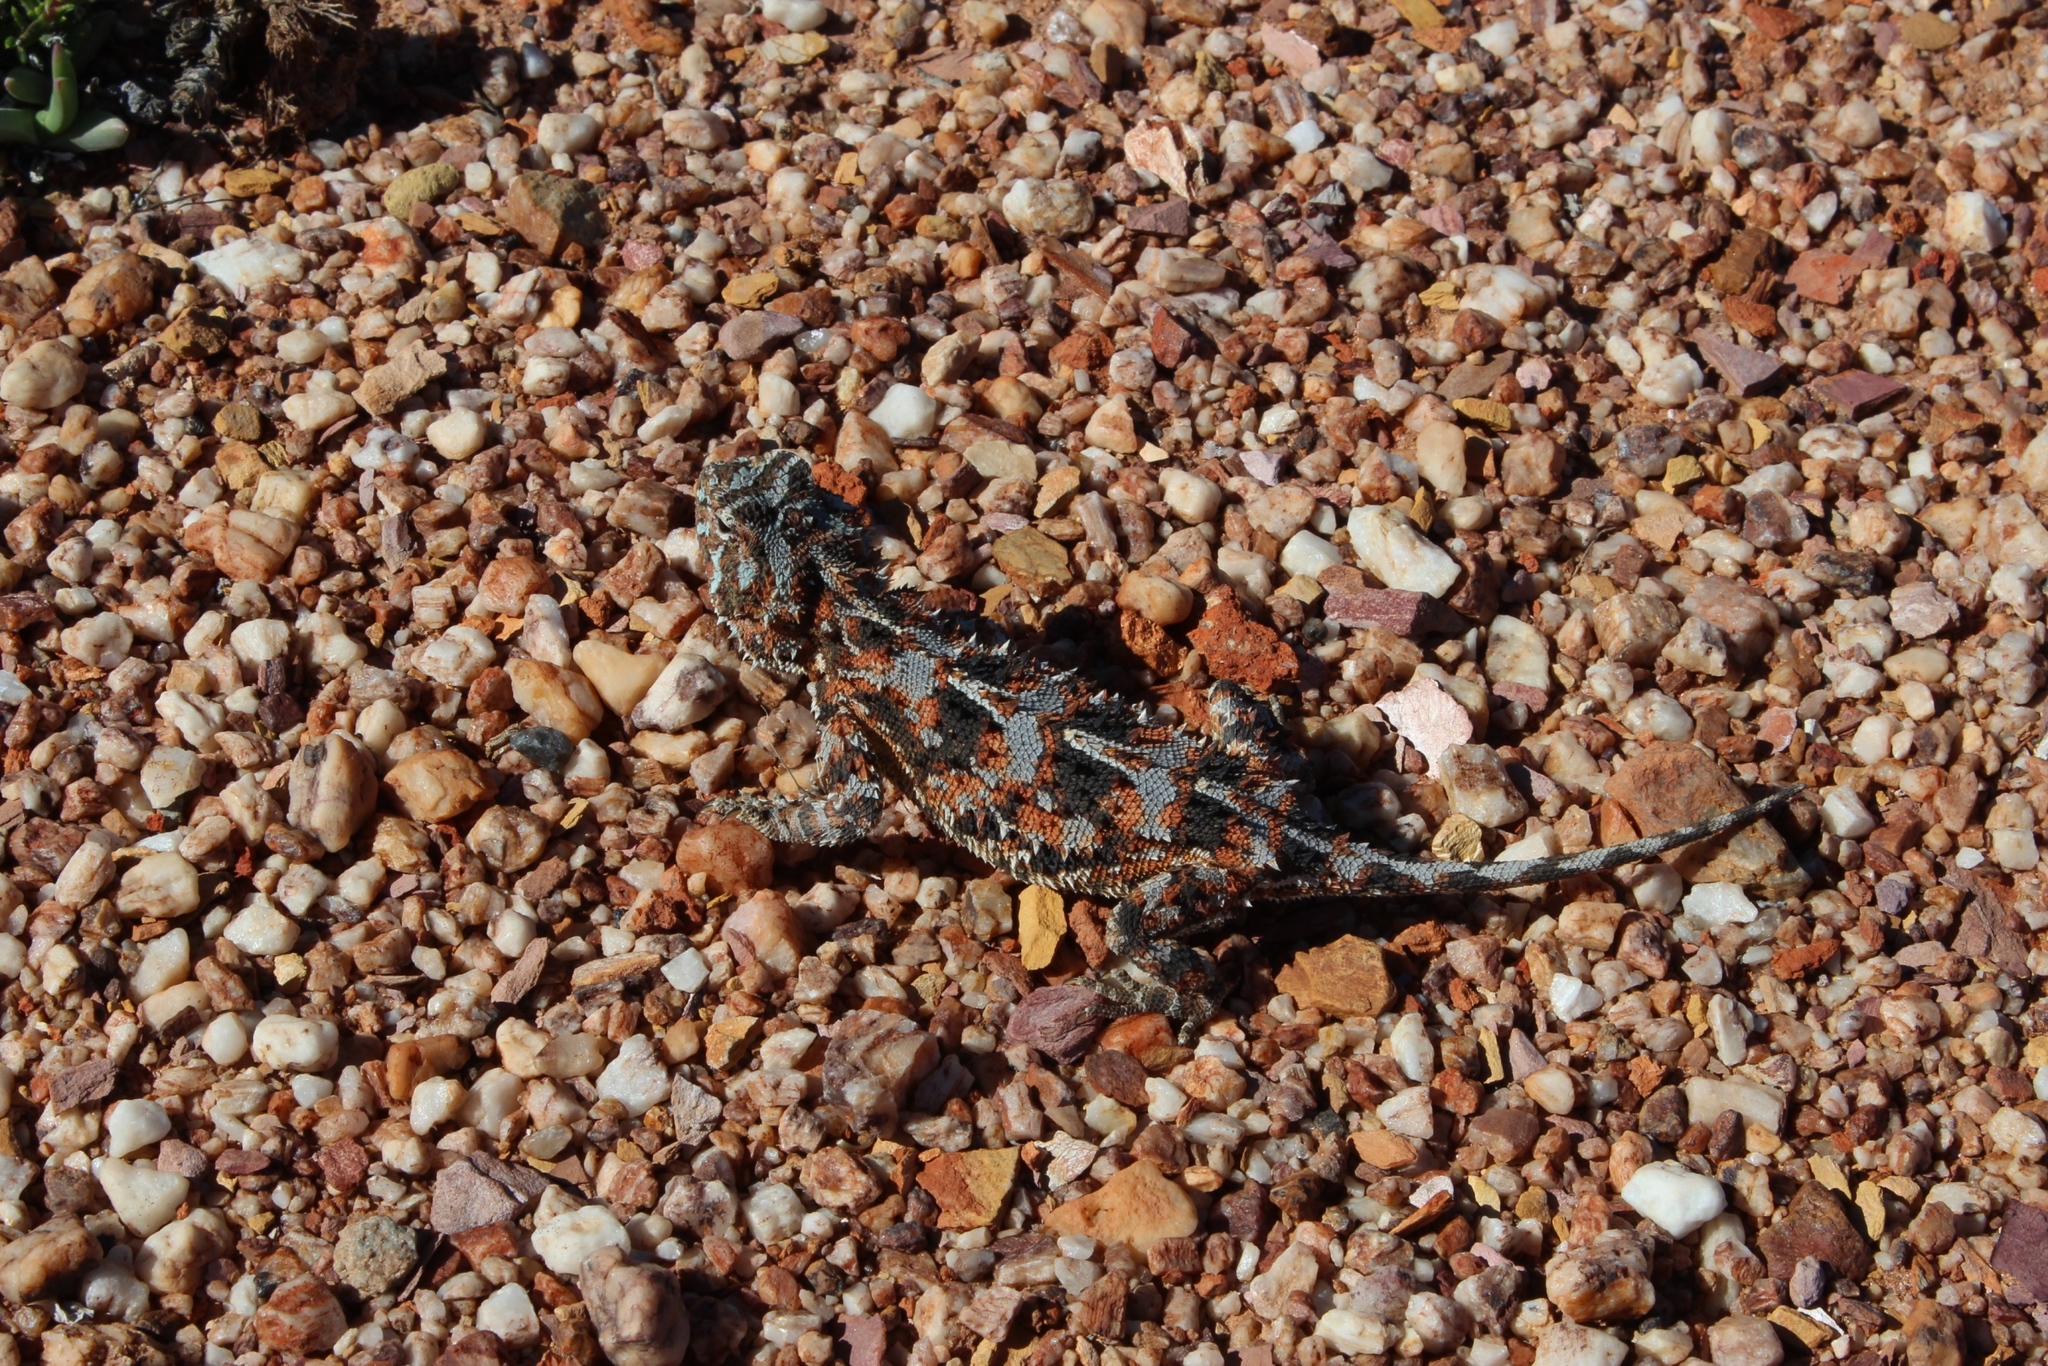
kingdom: Animalia
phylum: Chordata
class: Squamata
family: Agamidae
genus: Agama
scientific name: Agama hispida
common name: Common spiny agama
